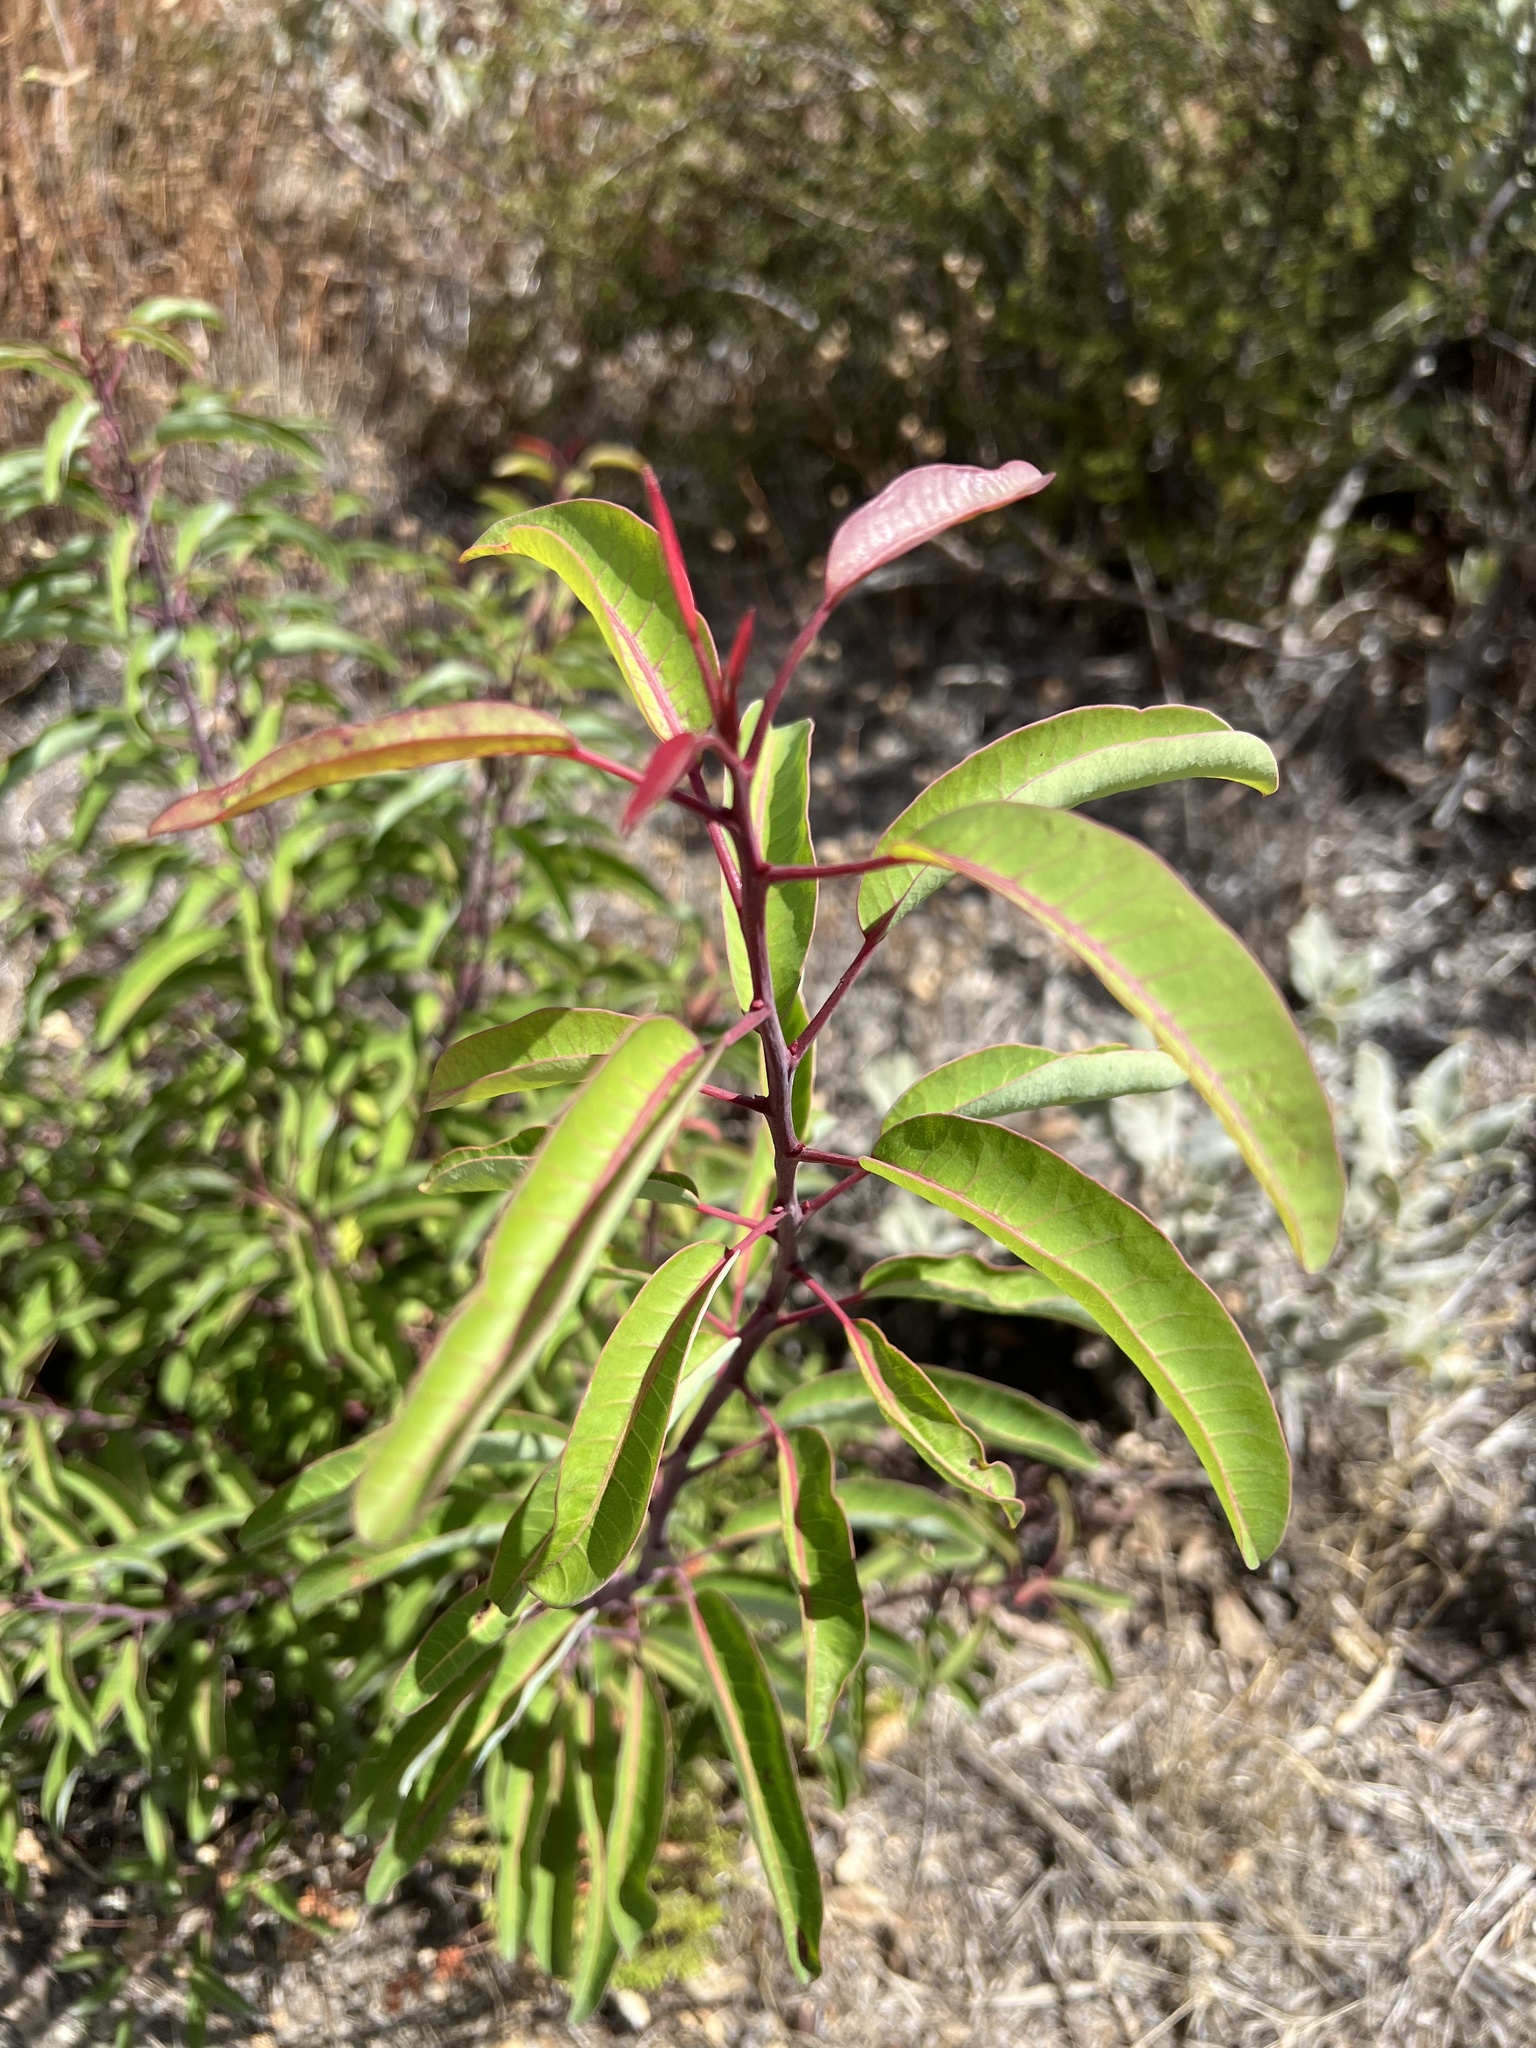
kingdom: Plantae
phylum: Tracheophyta
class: Magnoliopsida
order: Sapindales
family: Anacardiaceae
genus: Malosma
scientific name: Malosma laurina
